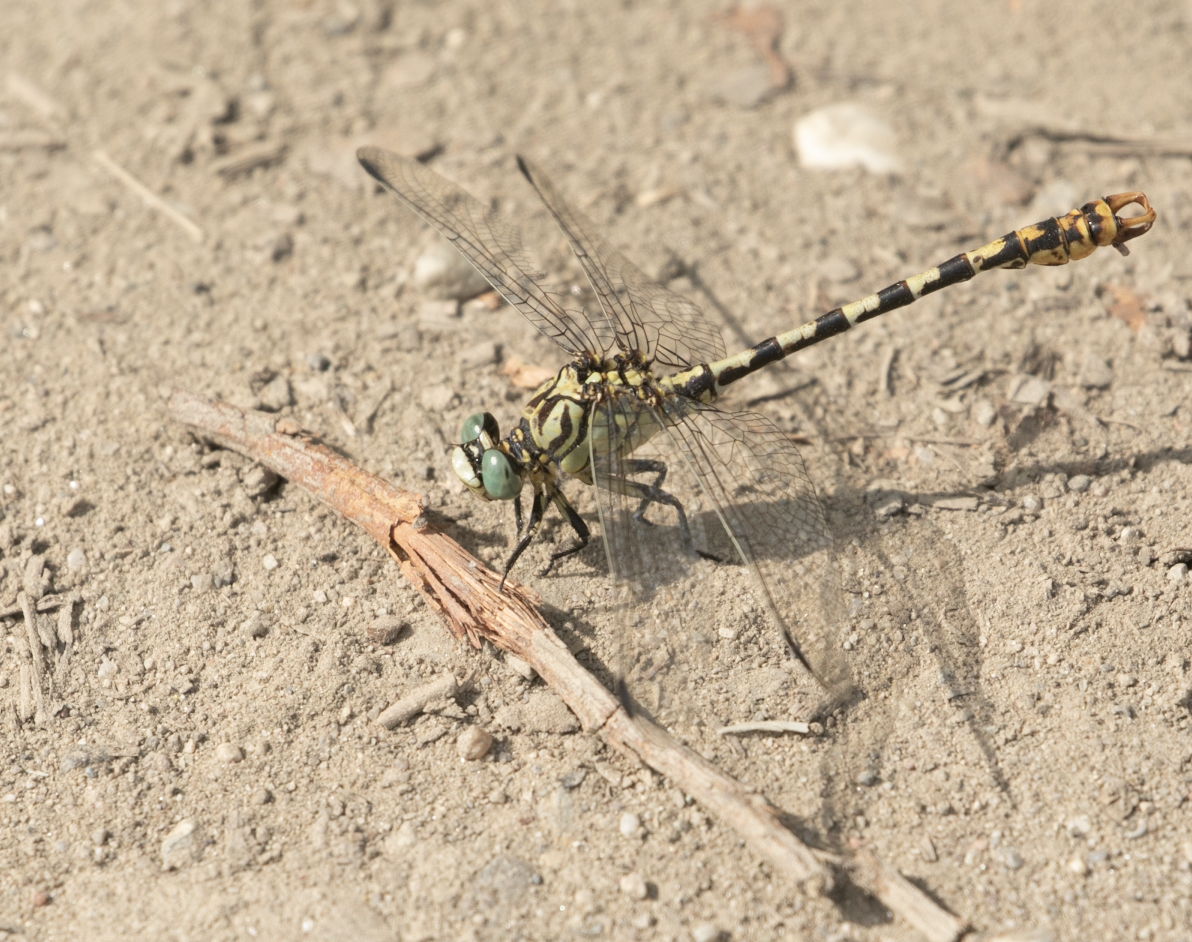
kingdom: Animalia
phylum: Arthropoda
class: Insecta
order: Odonata
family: Gomphidae
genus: Onychogomphus
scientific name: Onychogomphus forcipatus
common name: Small pincertail
